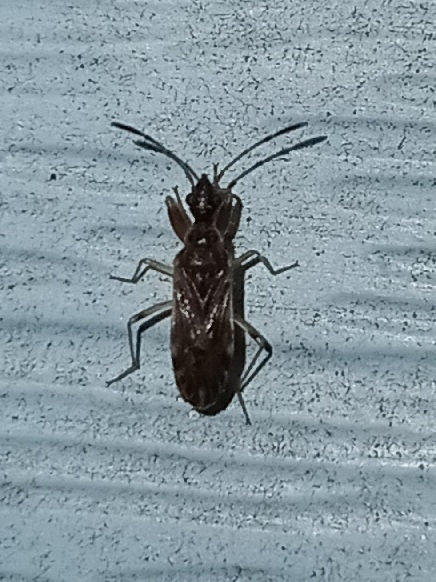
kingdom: Animalia
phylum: Arthropoda
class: Insecta
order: Hemiptera
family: Rhyparochromidae
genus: Heraeus
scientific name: Heraeus plebejus
